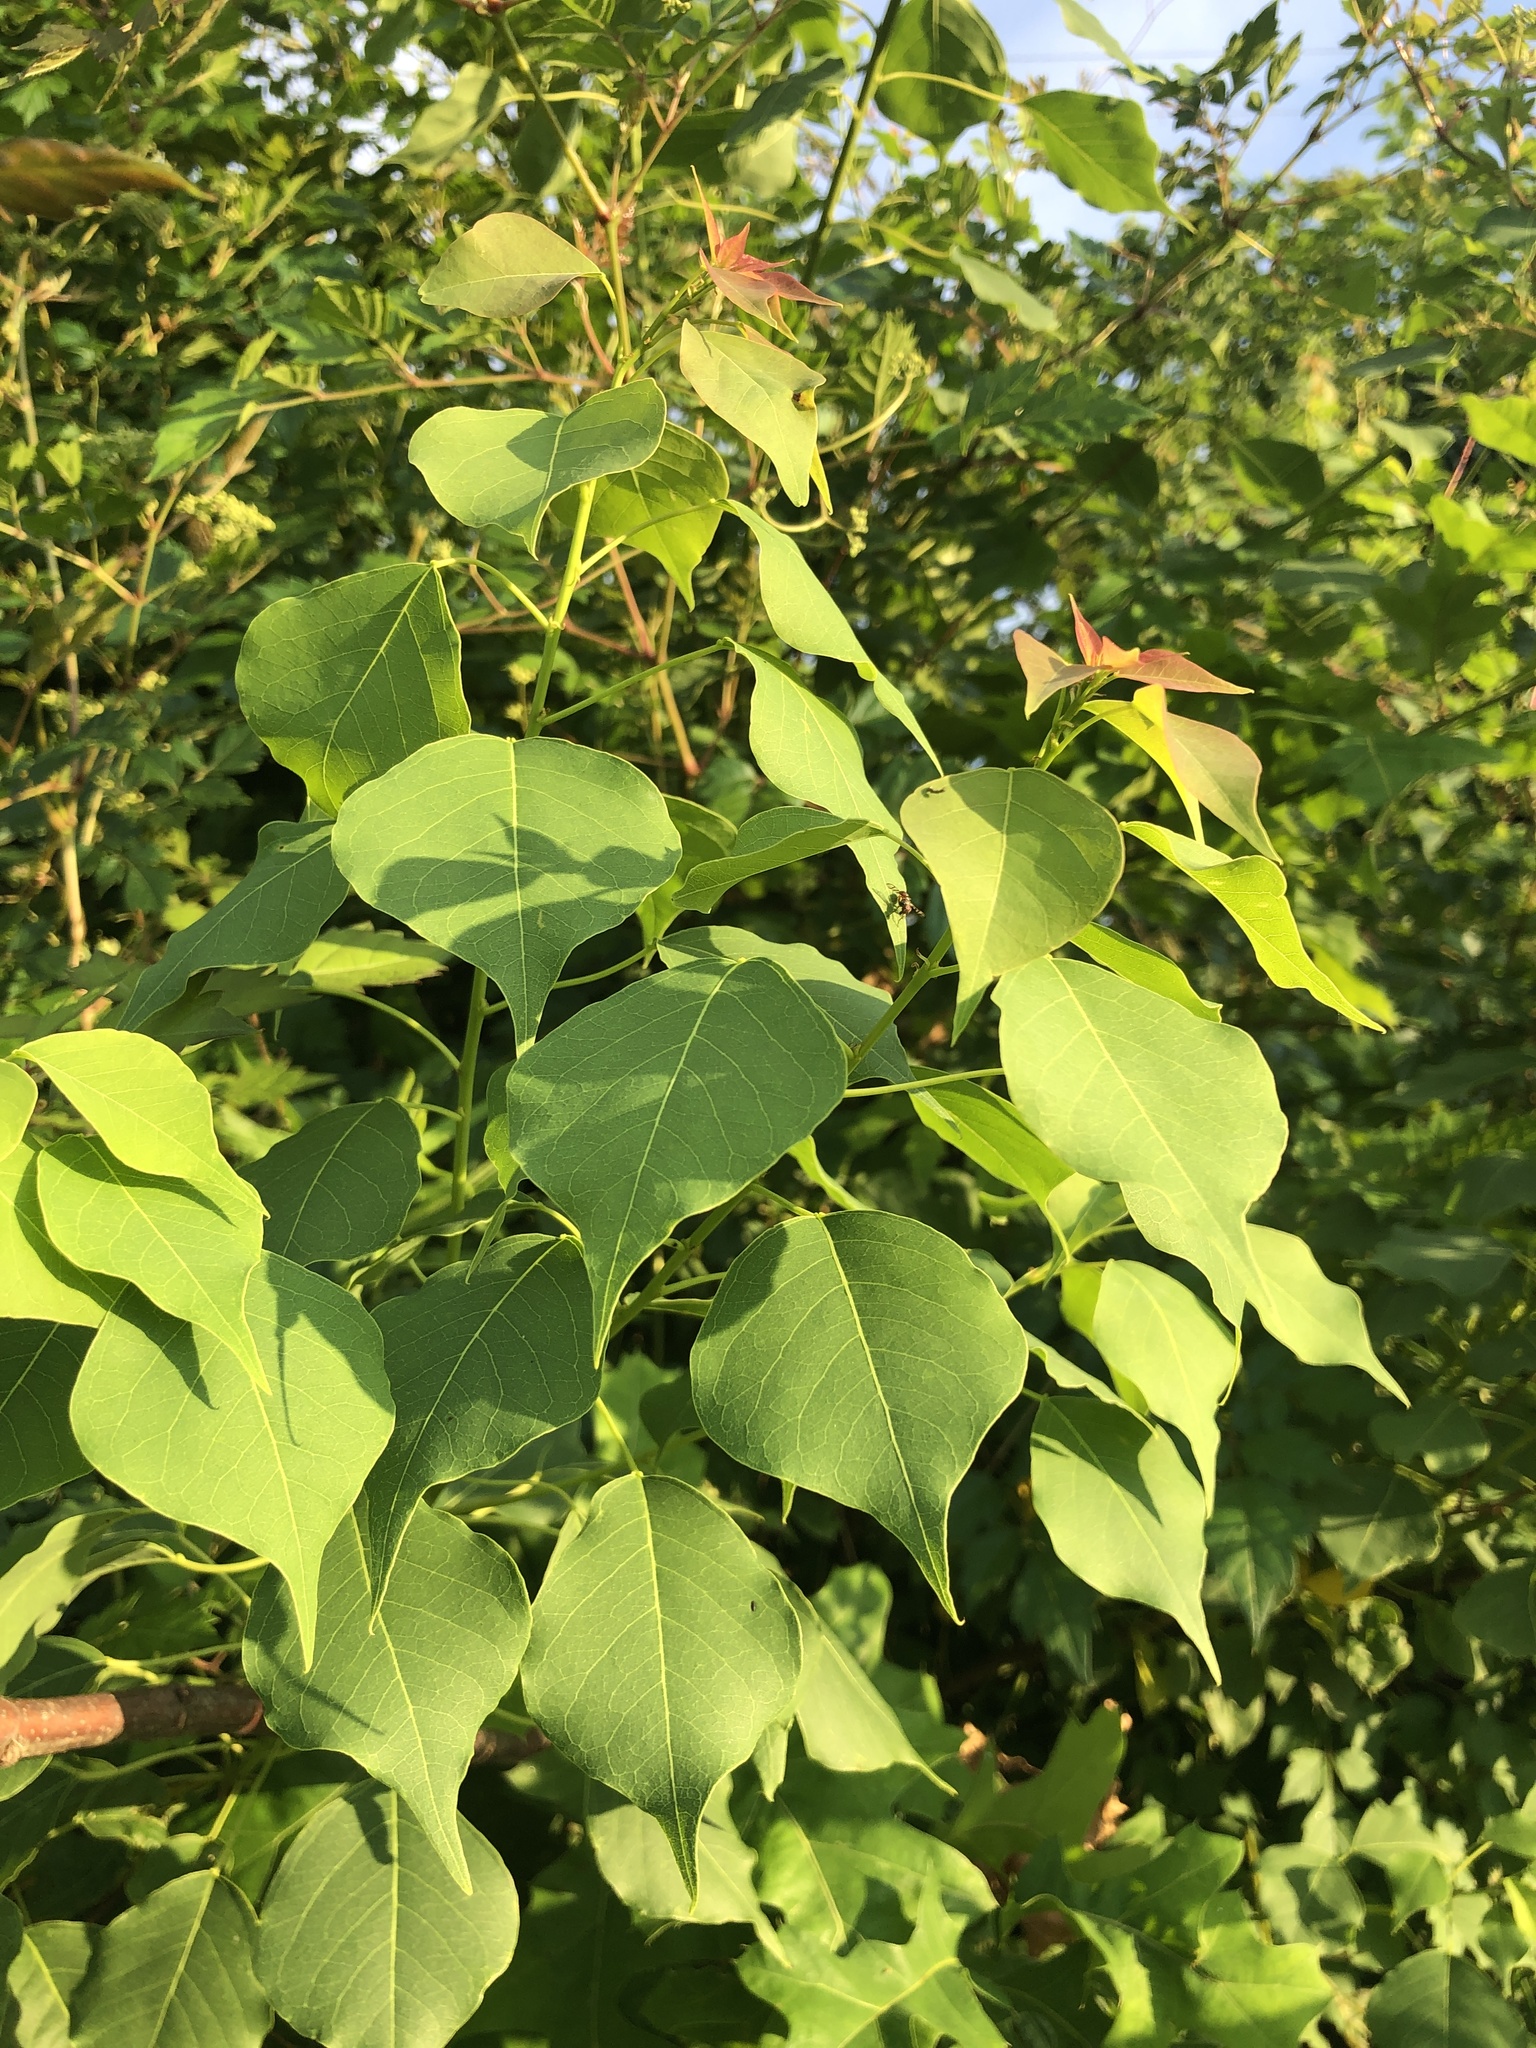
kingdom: Plantae
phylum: Tracheophyta
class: Magnoliopsida
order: Malpighiales
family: Euphorbiaceae
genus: Triadica
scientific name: Triadica sebifera
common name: Chinese tallow
